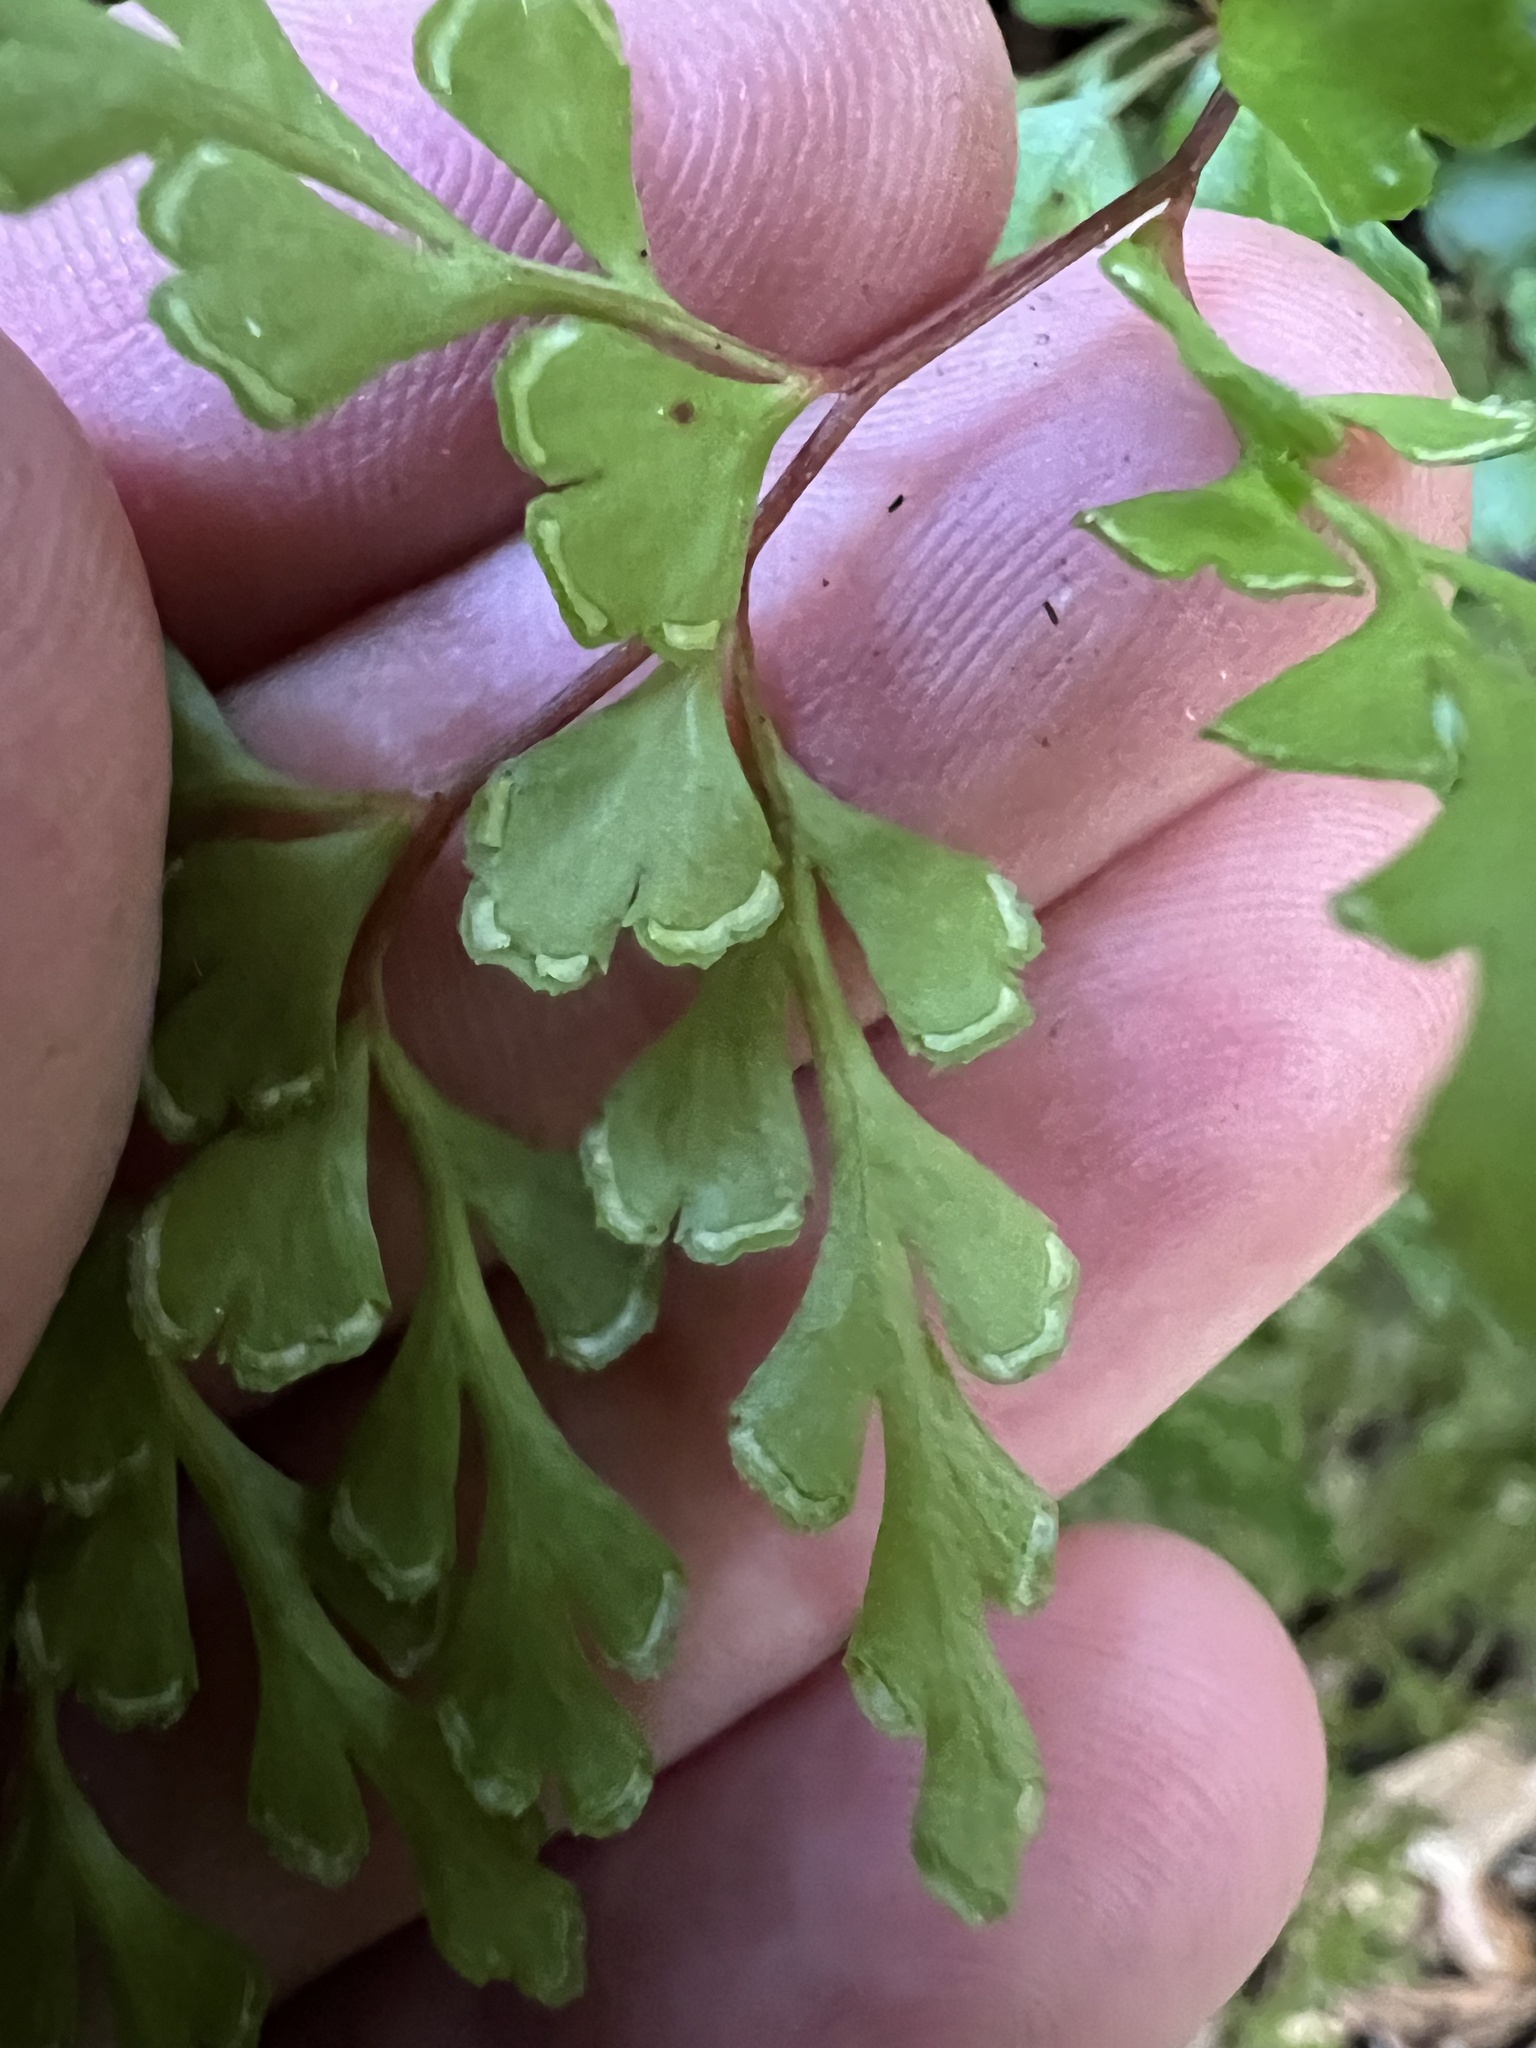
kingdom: Plantae
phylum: Tracheophyta
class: Polypodiopsida
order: Polypodiales
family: Lindsaeaceae
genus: Lindsaea
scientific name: Lindsaea trichomanoides
